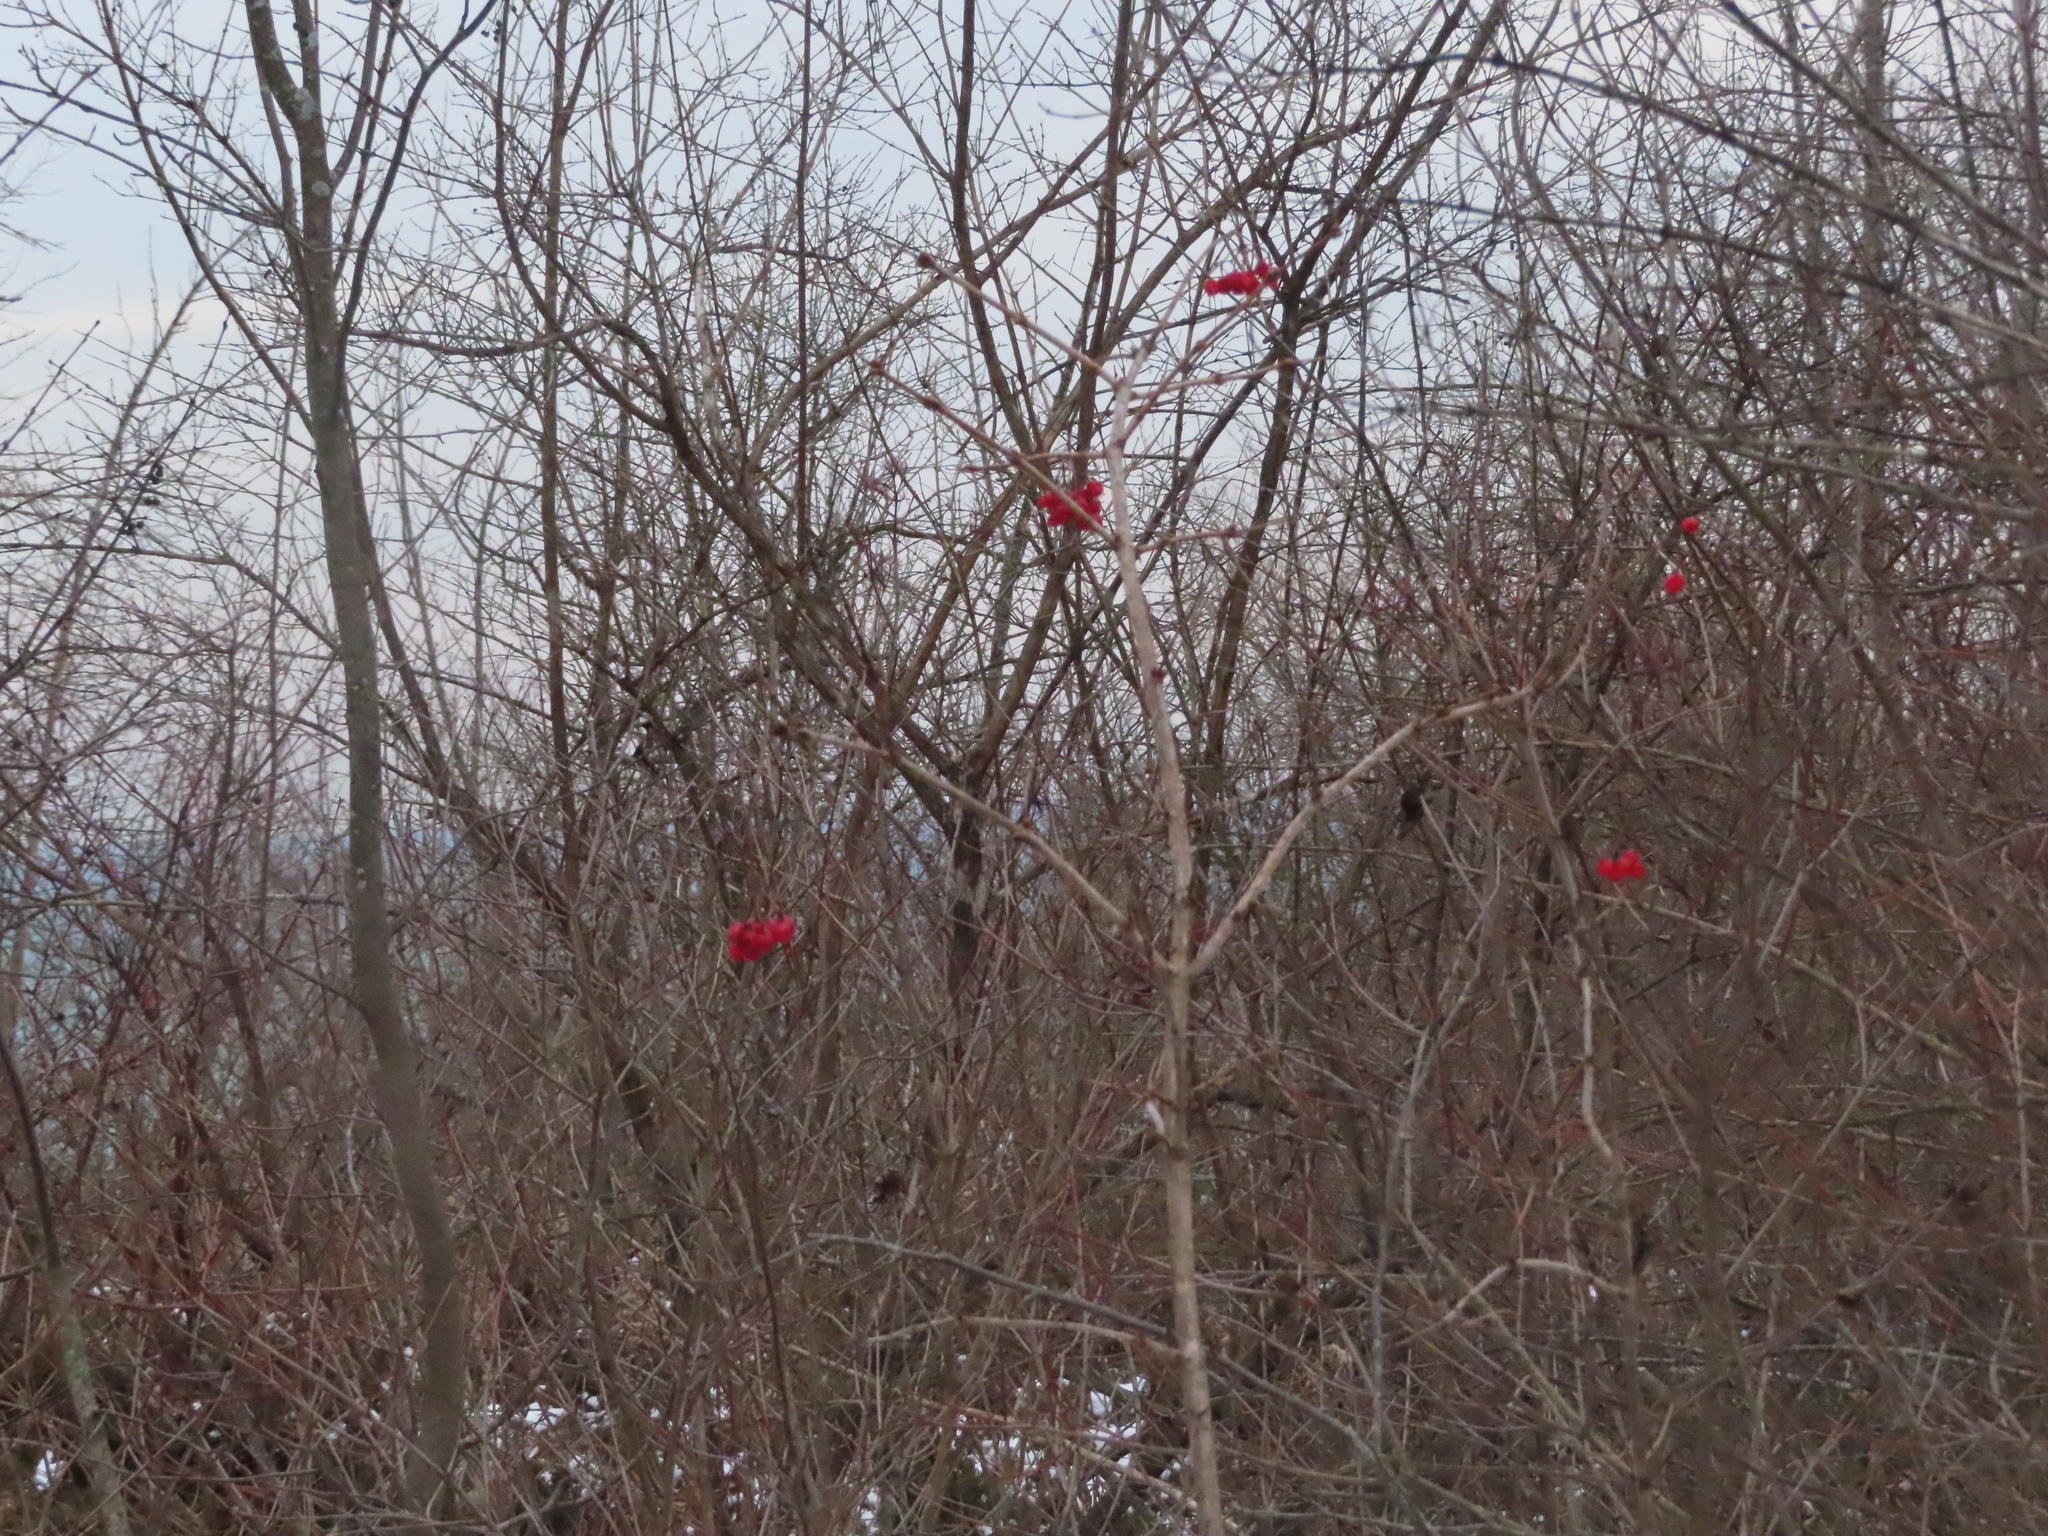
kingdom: Plantae
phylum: Tracheophyta
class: Magnoliopsida
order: Dipsacales
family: Viburnaceae
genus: Viburnum
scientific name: Viburnum opulus
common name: Guelder-rose
